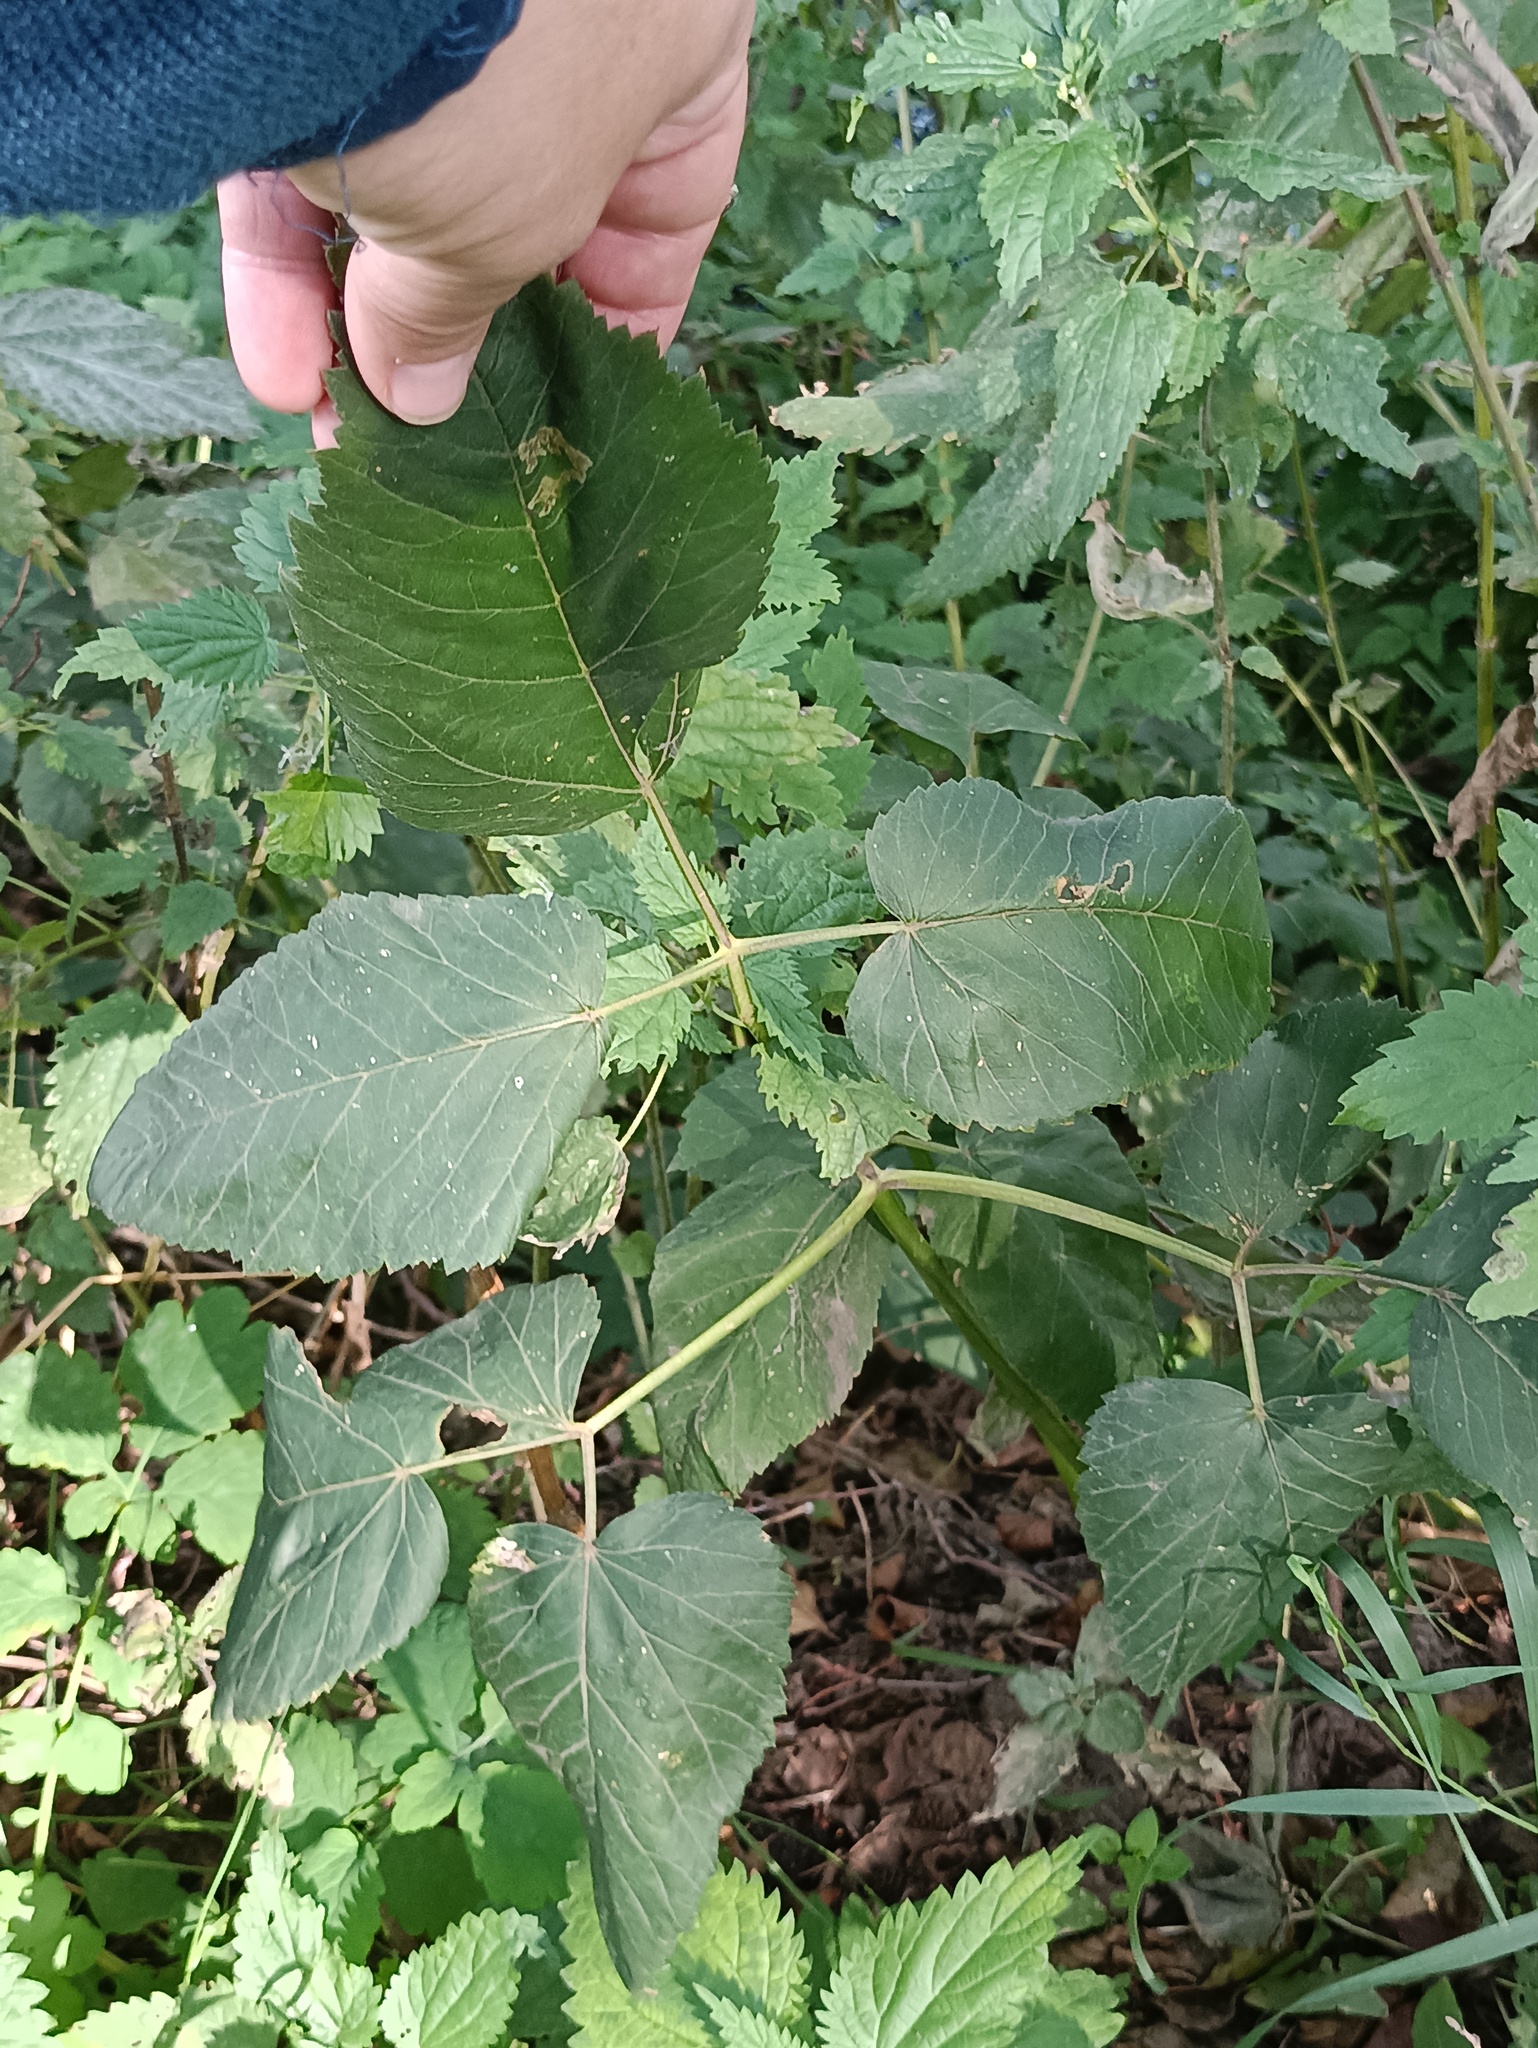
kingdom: Plantae
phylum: Tracheophyta
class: Magnoliopsida
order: Apiales
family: Apiaceae
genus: Aegopodium
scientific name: Aegopodium podagraria
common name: Ground-elder
